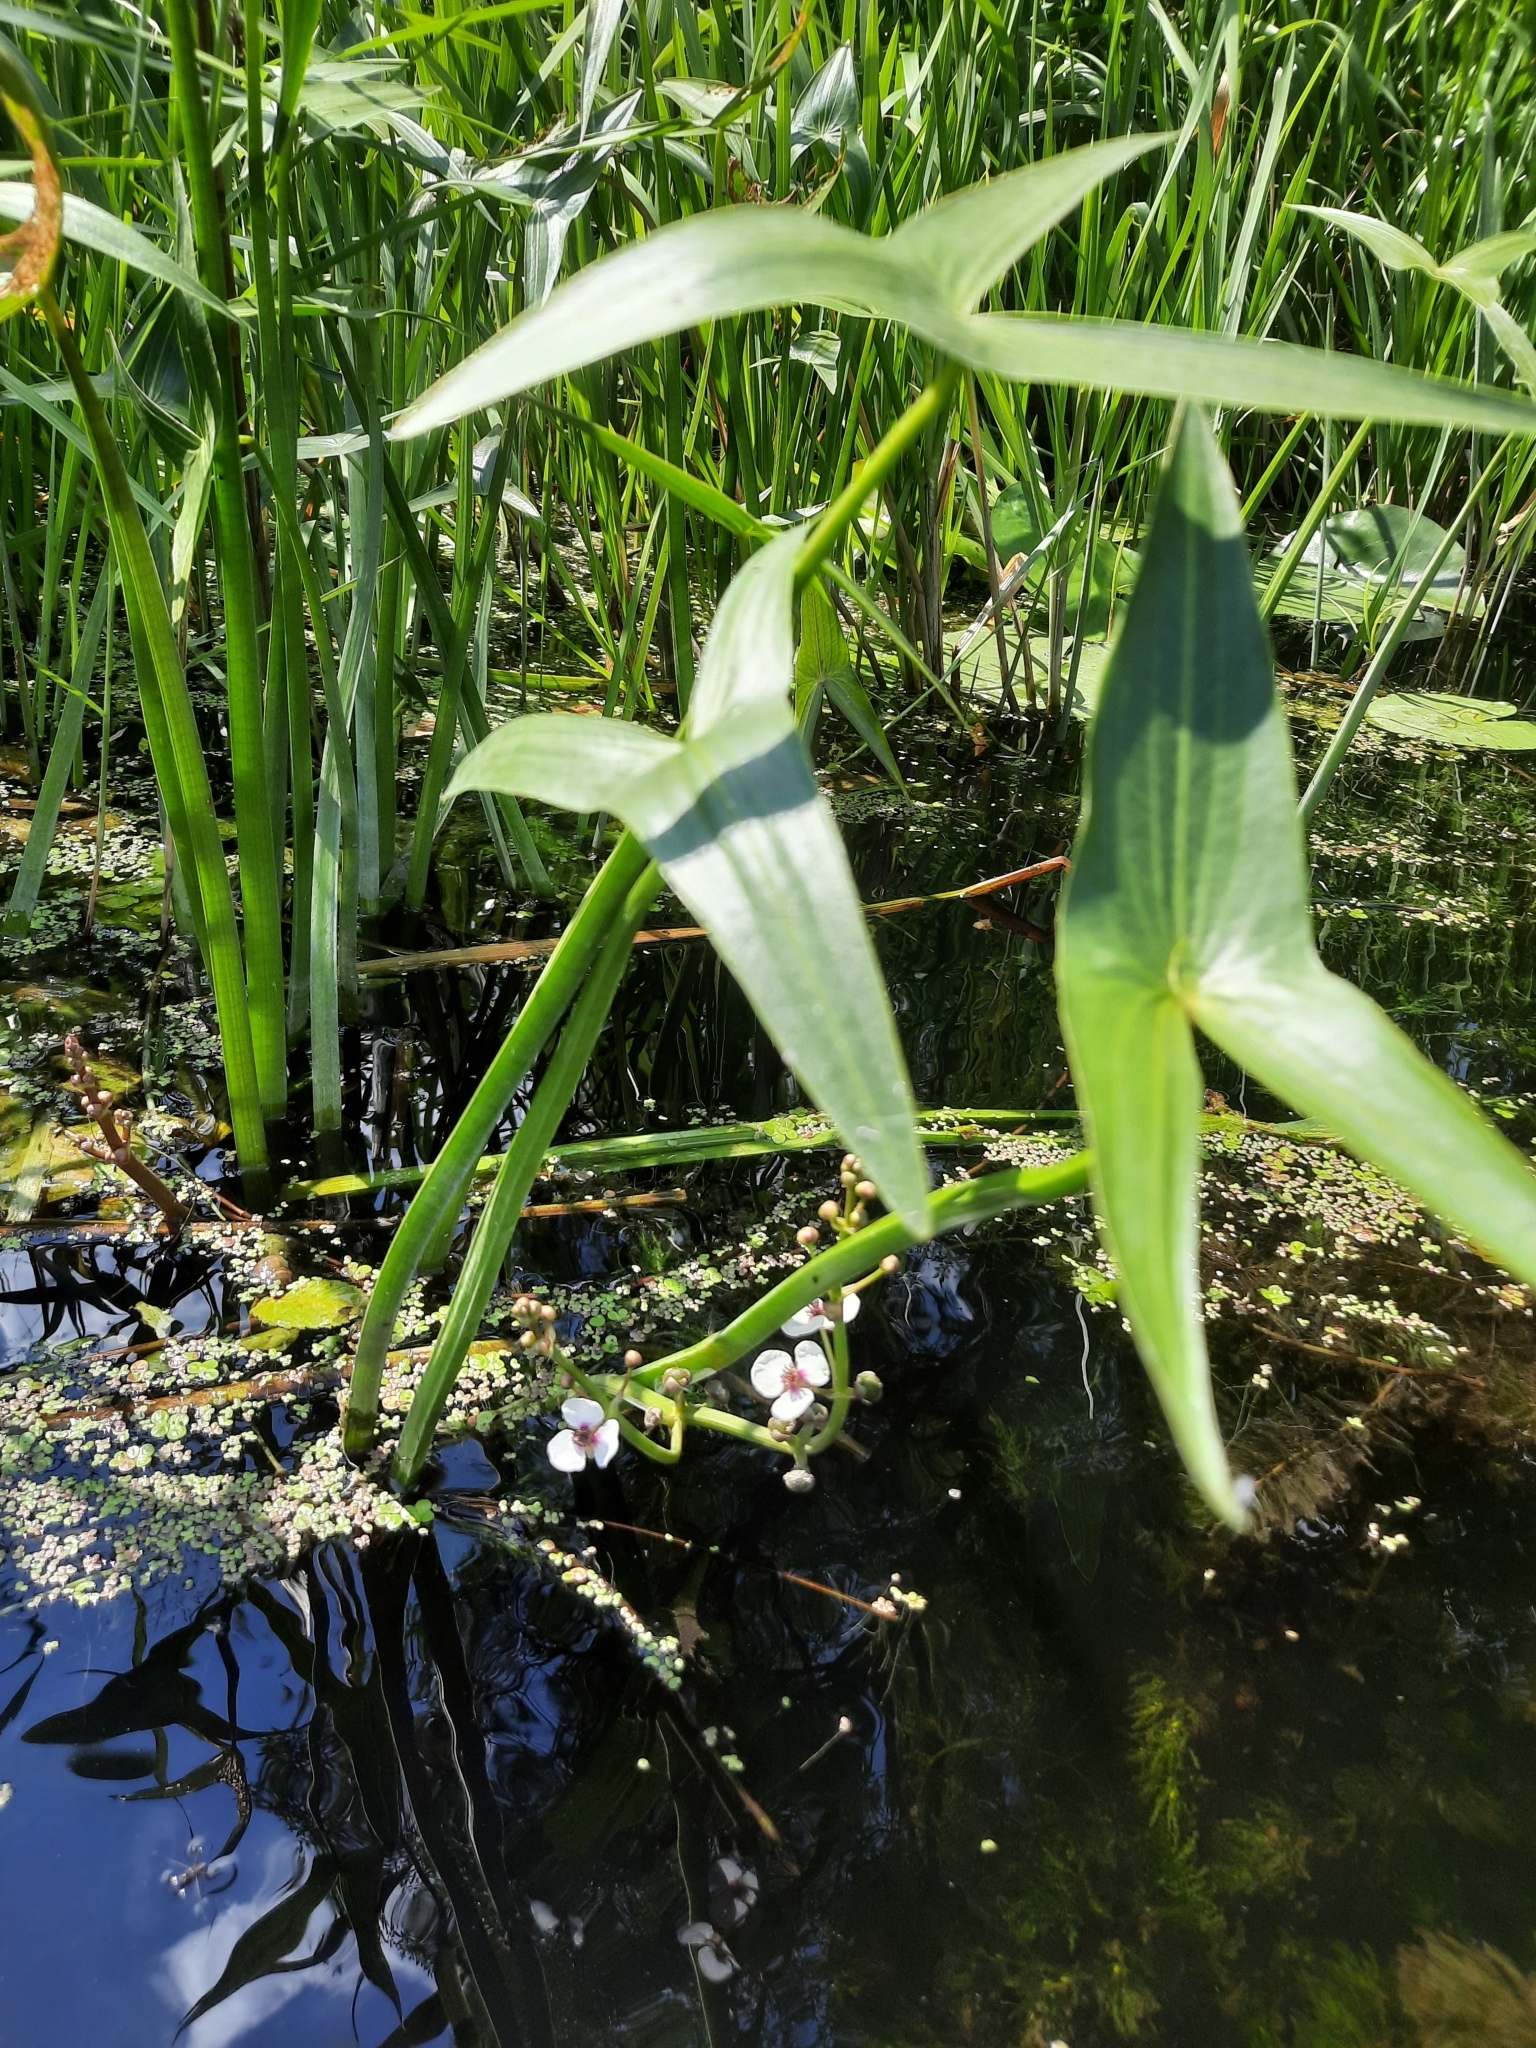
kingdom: Plantae
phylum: Tracheophyta
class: Liliopsida
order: Alismatales
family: Alismataceae
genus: Sagittaria
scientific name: Sagittaria sagittifolia
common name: Arrowhead
